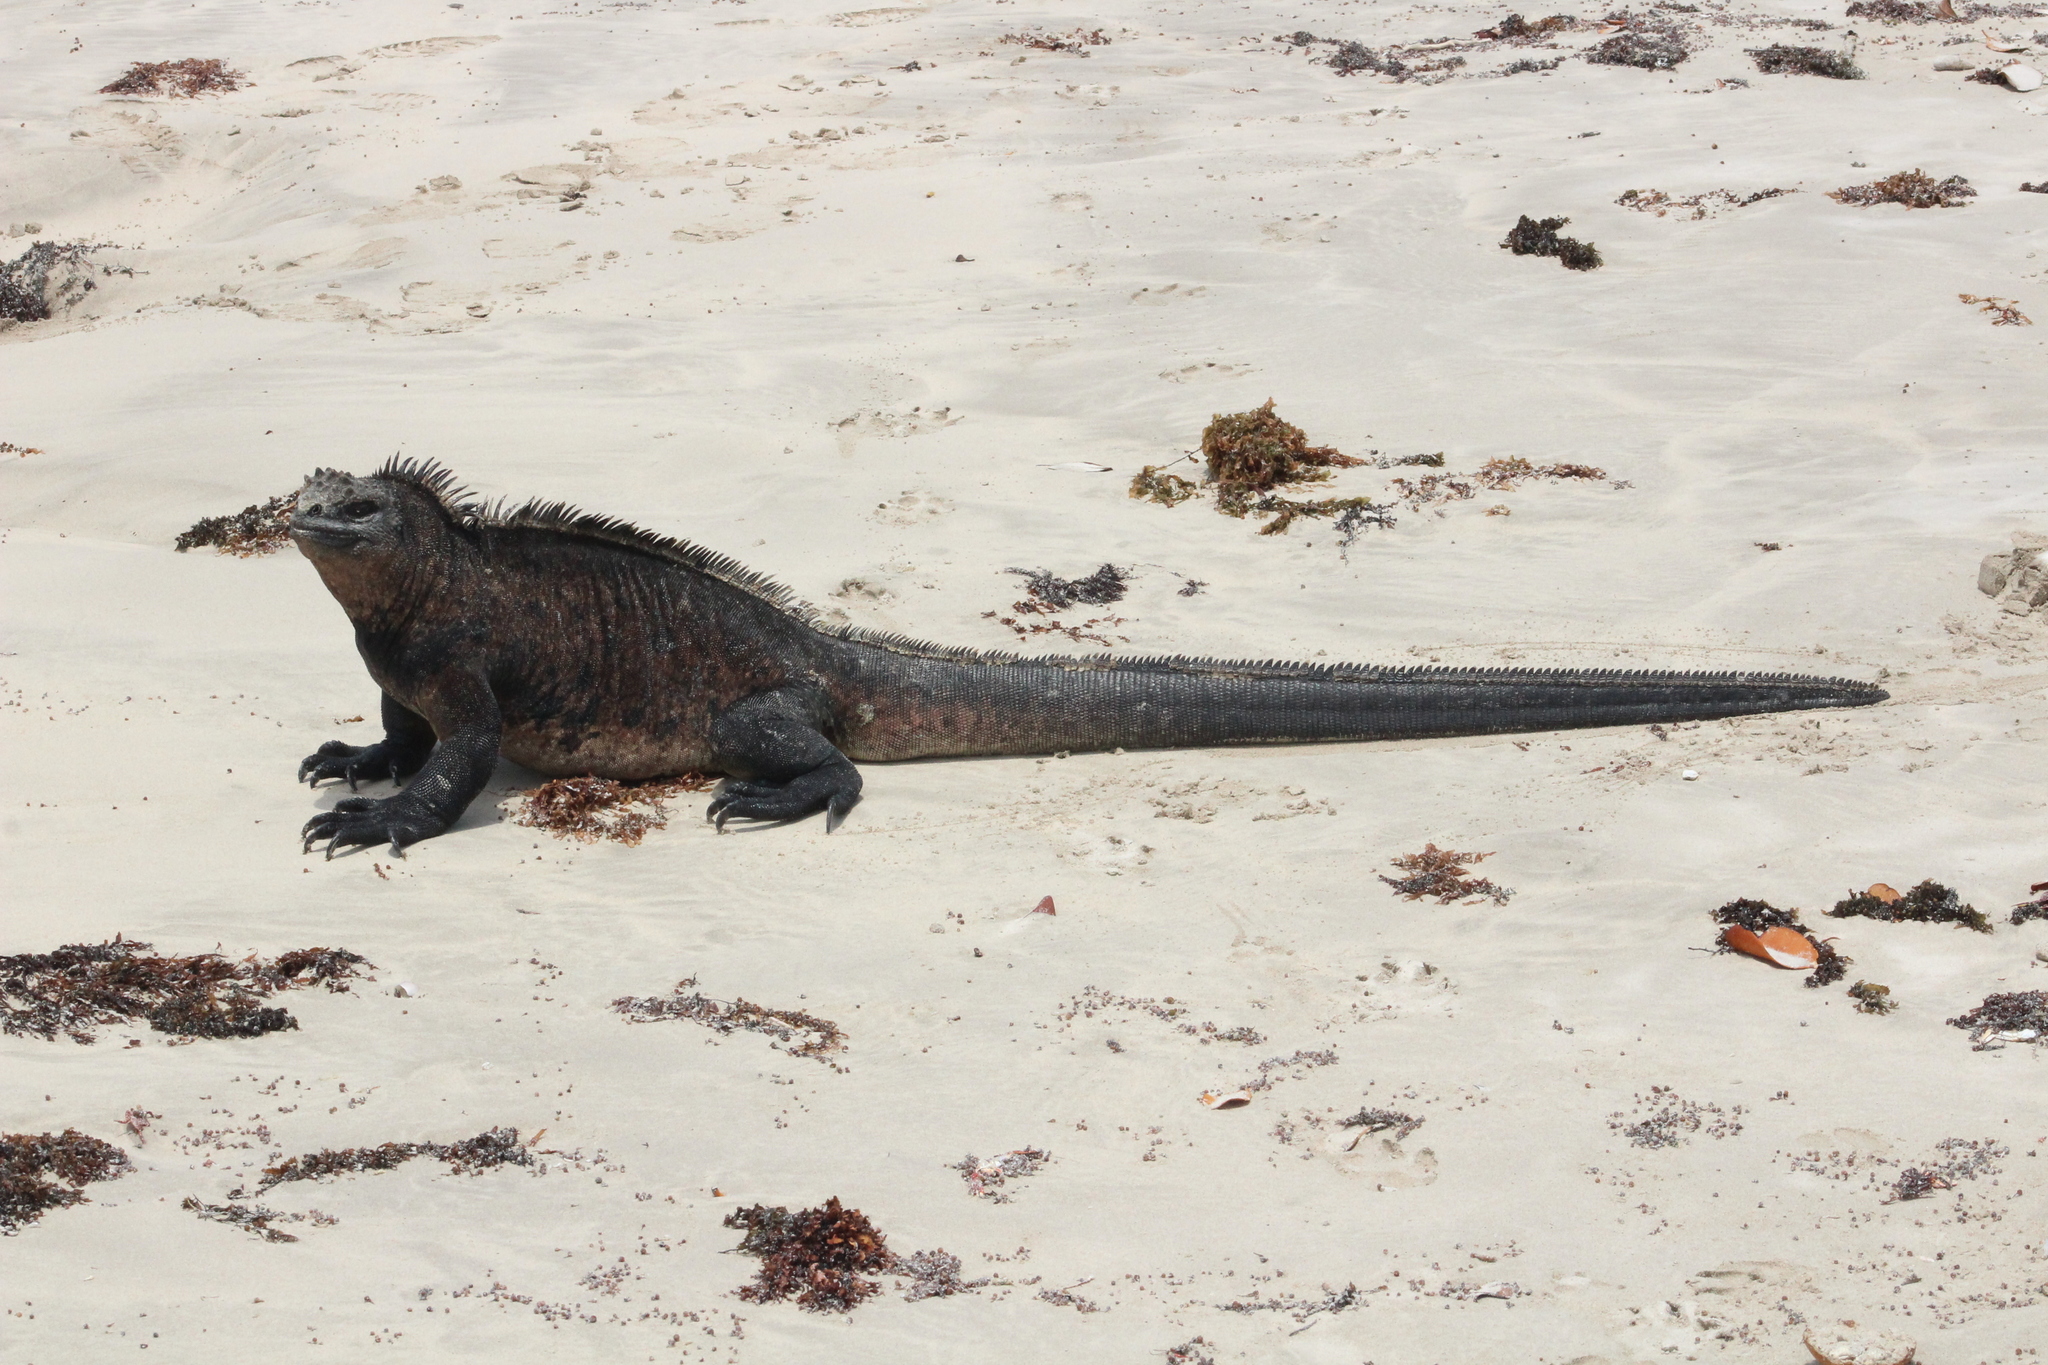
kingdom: Animalia
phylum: Chordata
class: Squamata
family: Iguanidae
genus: Amblyrhynchus
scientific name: Amblyrhynchus cristatus
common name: Marine iguana
